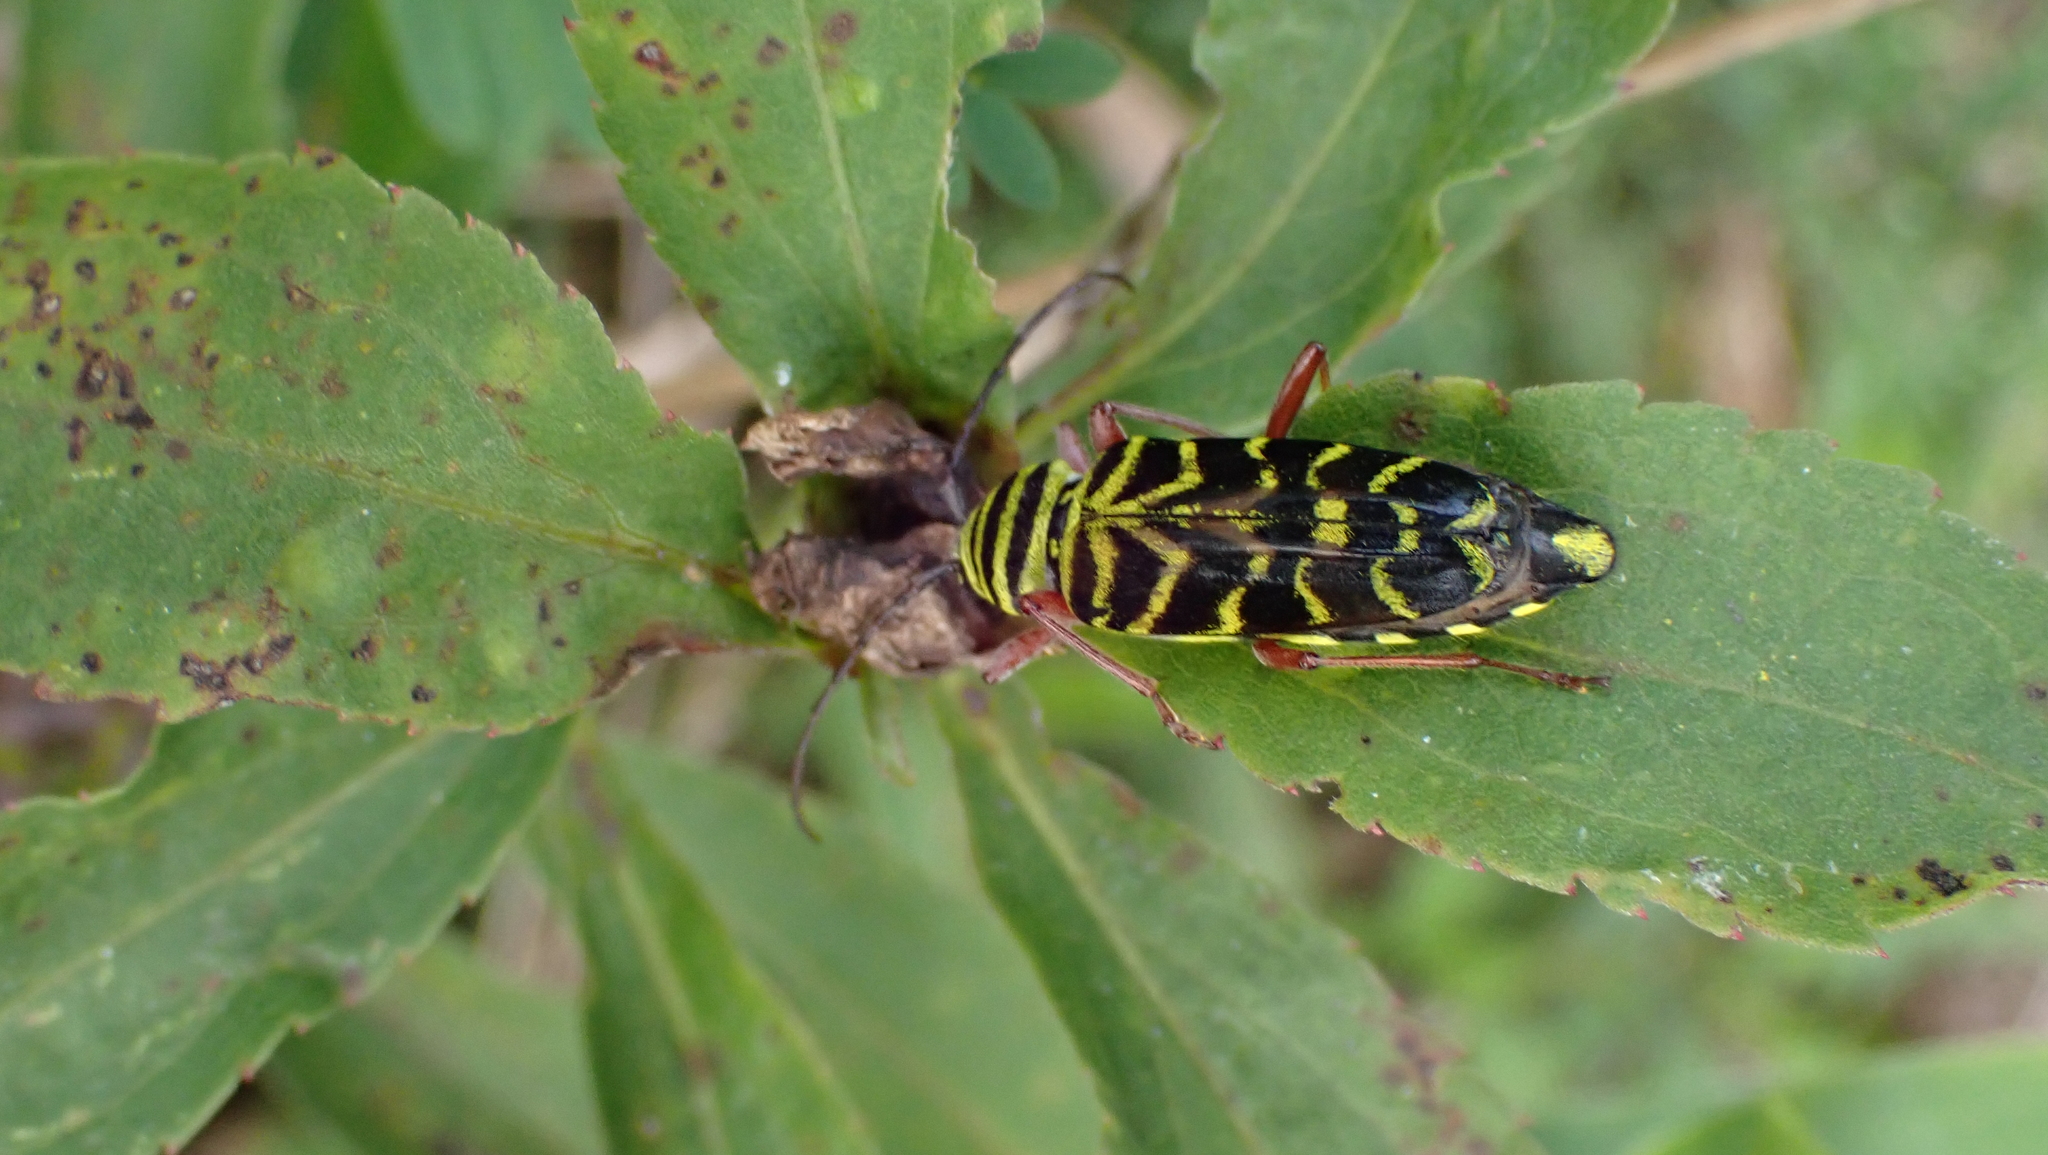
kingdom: Animalia
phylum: Arthropoda
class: Insecta
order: Coleoptera
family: Cerambycidae
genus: Megacyllene
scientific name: Megacyllene robiniae
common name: Locust borer
